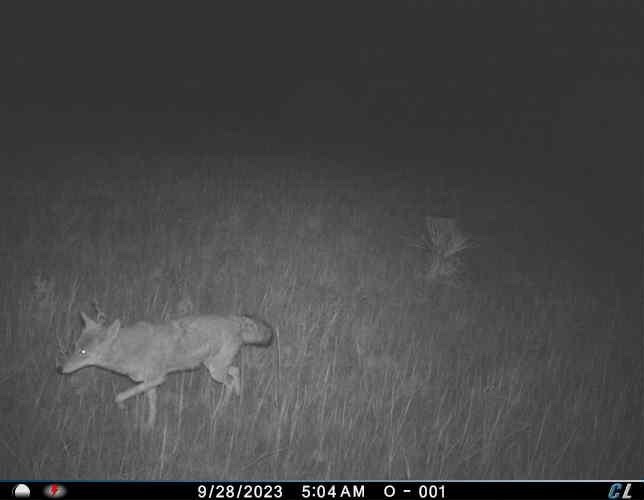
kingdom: Animalia
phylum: Chordata
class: Mammalia
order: Carnivora
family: Canidae
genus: Canis
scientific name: Canis latrans
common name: Coyote
